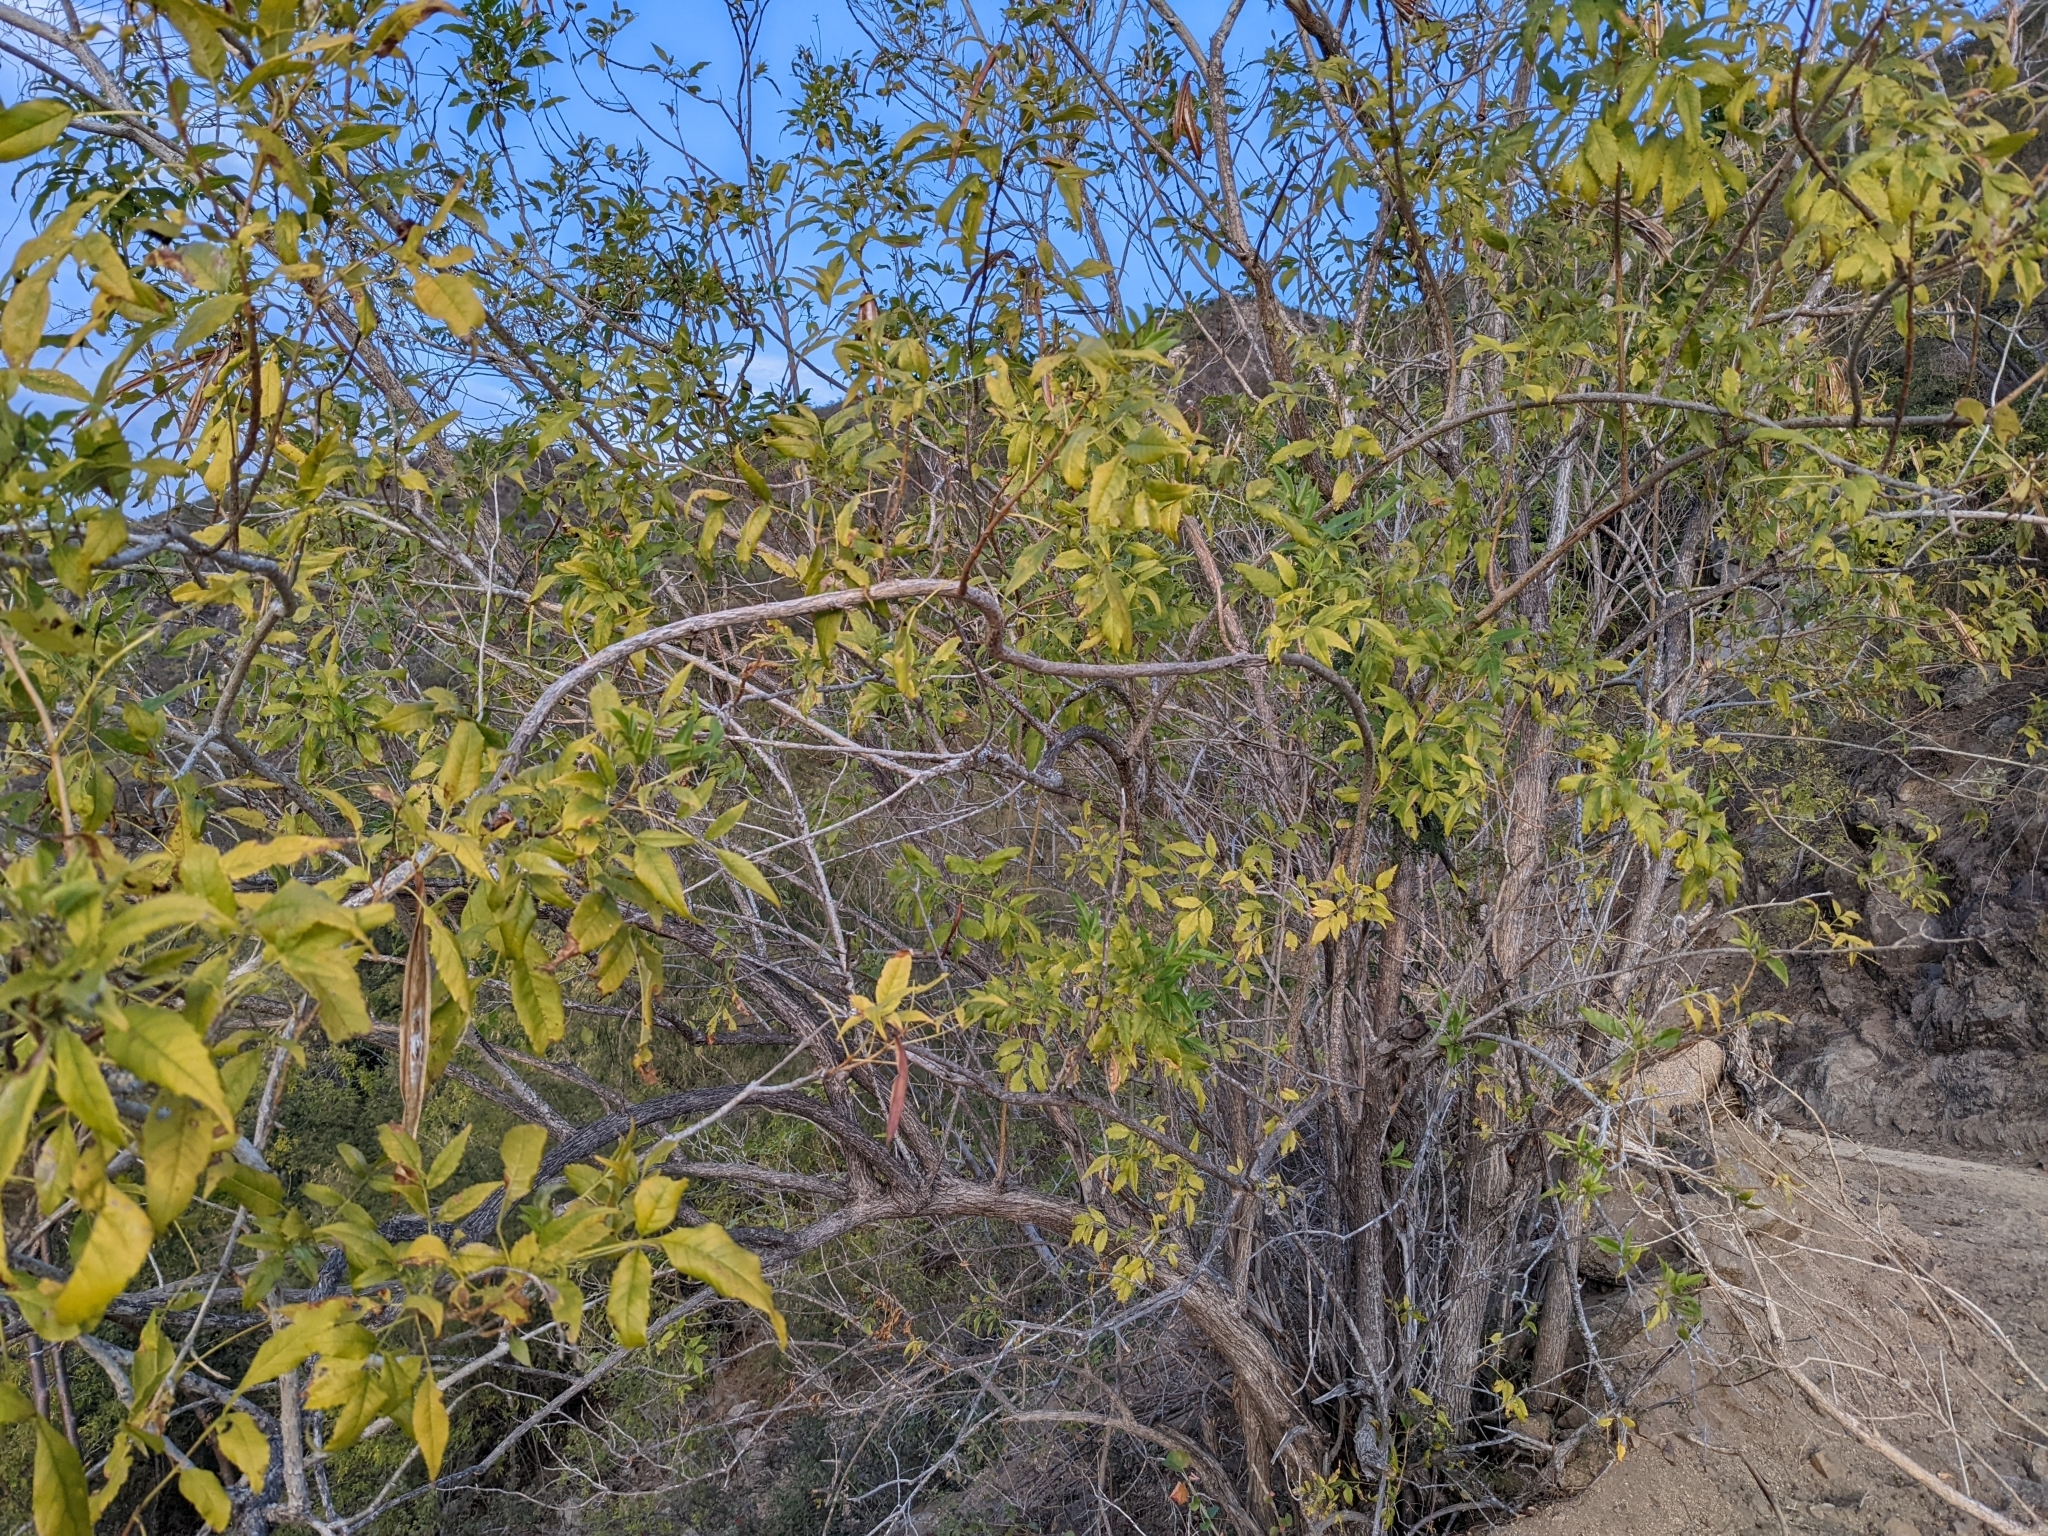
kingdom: Plantae
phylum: Tracheophyta
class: Magnoliopsida
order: Lamiales
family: Bignoniaceae
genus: Tecoma
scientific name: Tecoma stans
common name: Yellow trumpetbush
